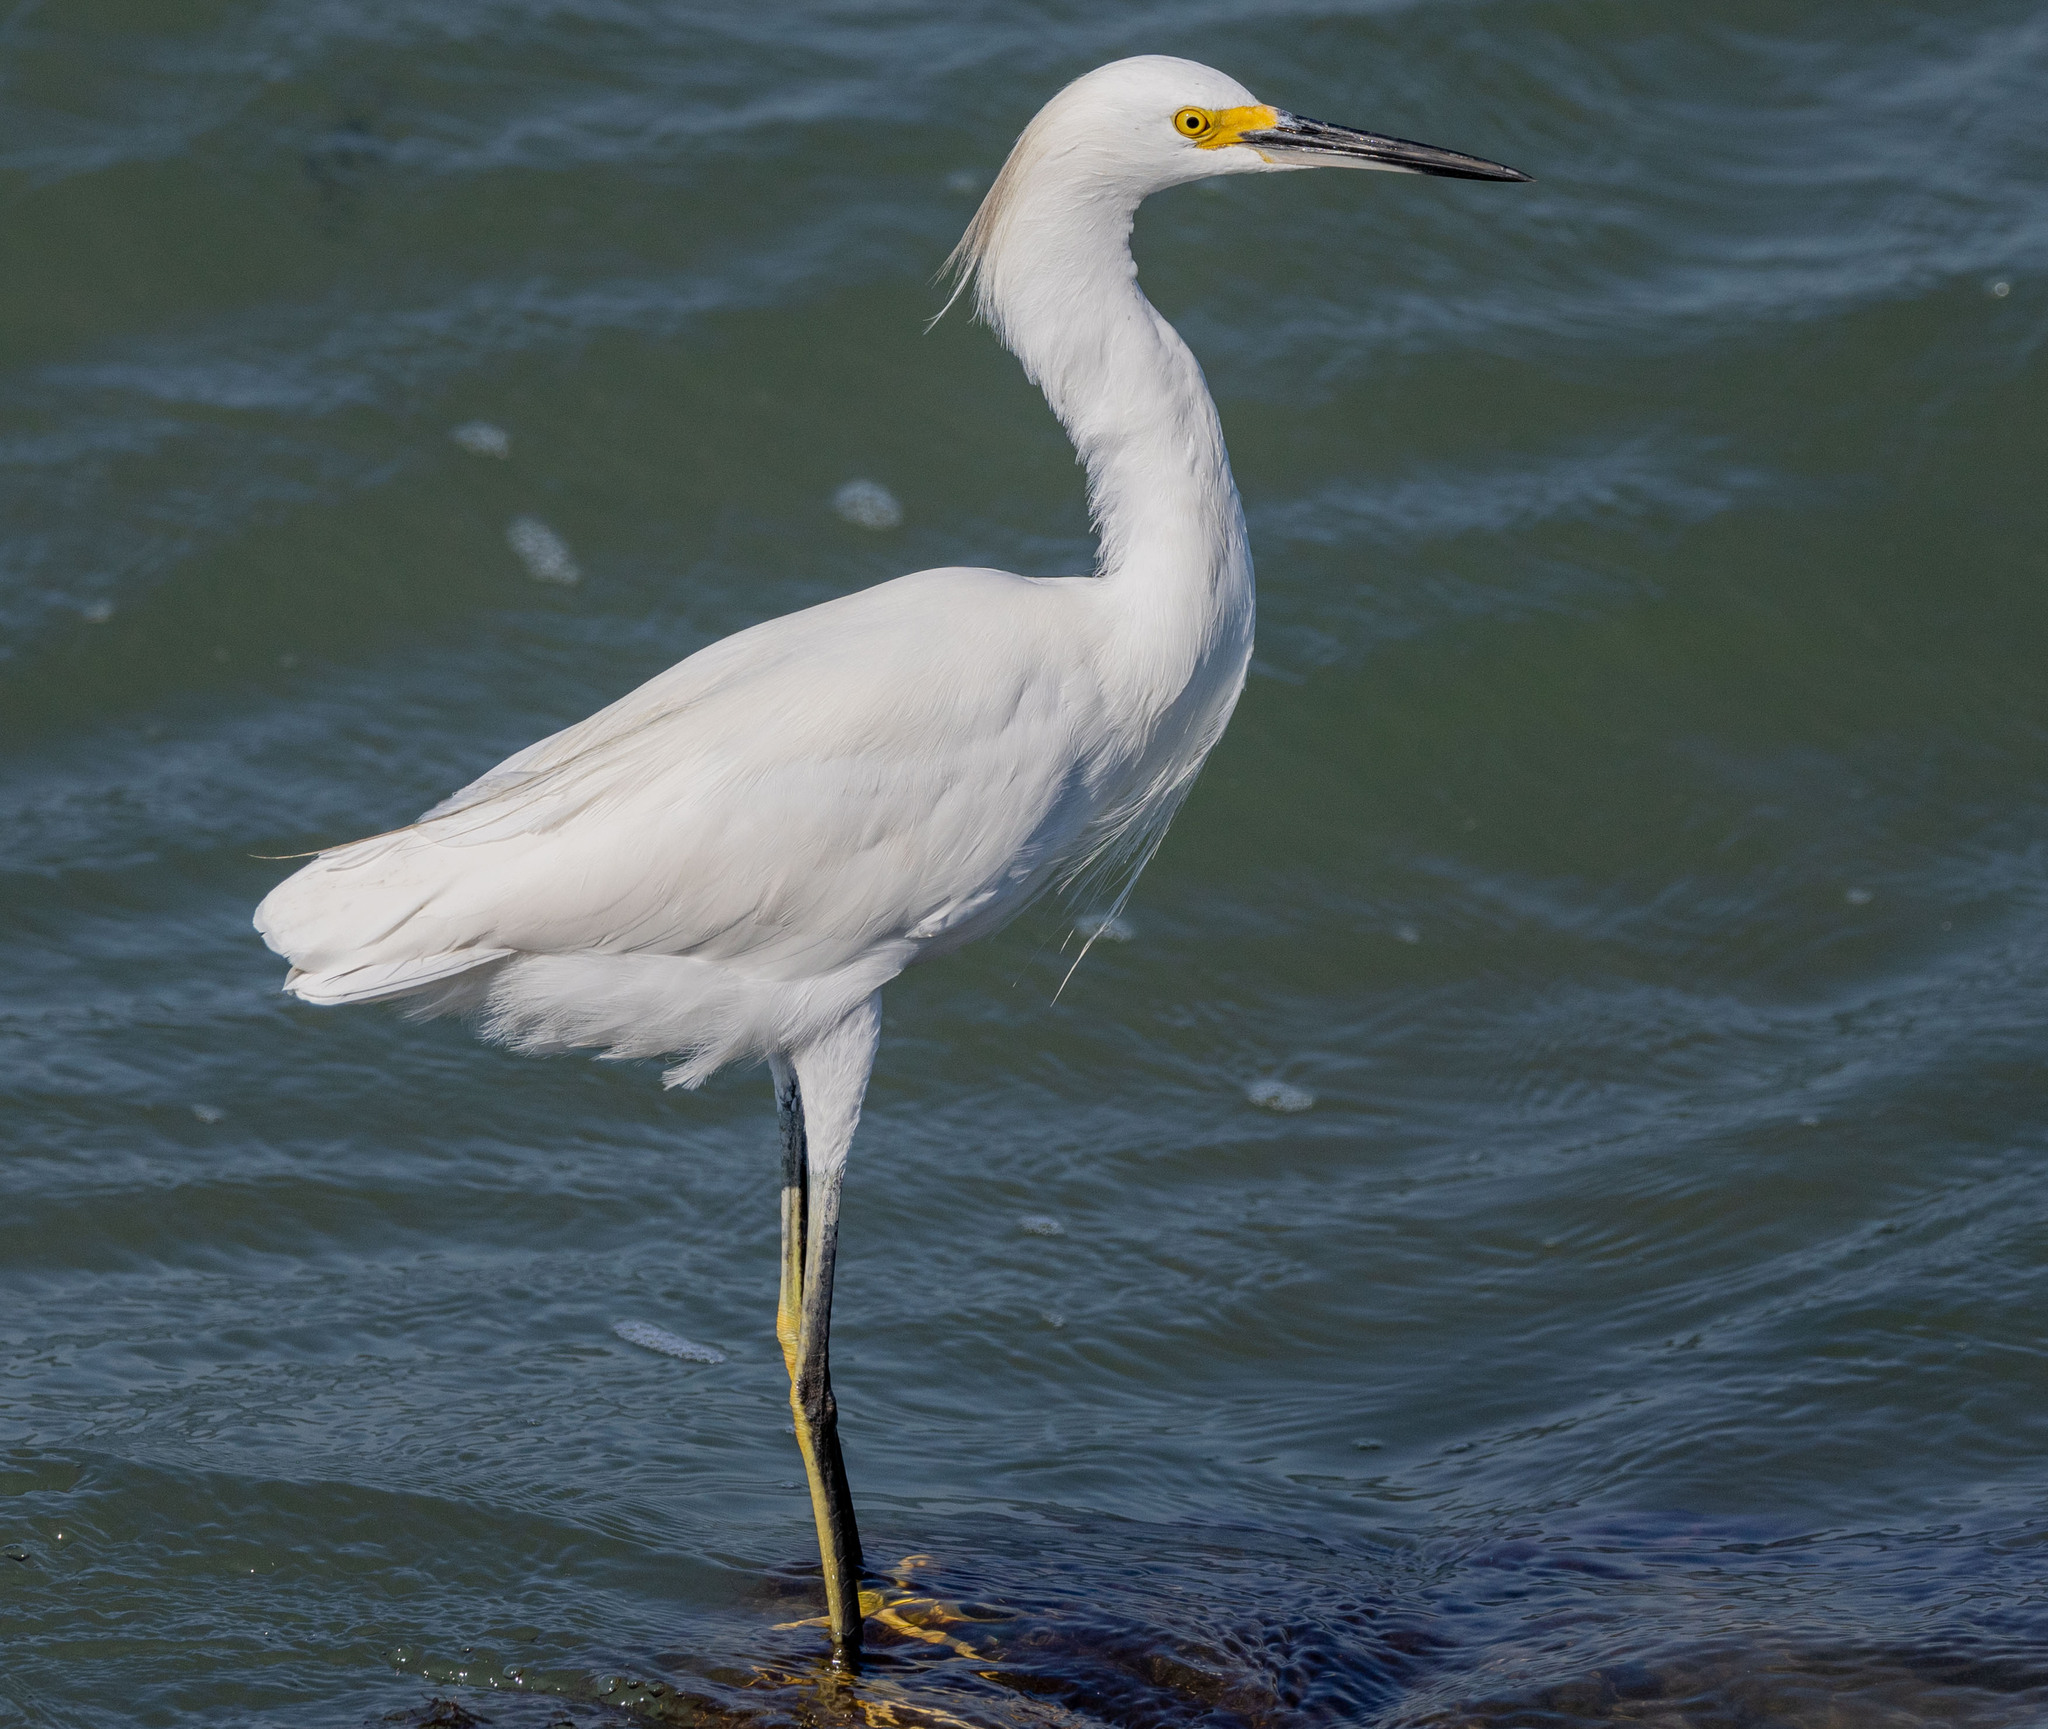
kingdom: Animalia
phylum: Chordata
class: Aves
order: Pelecaniformes
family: Ardeidae
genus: Egretta
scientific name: Egretta thula
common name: Snowy egret
